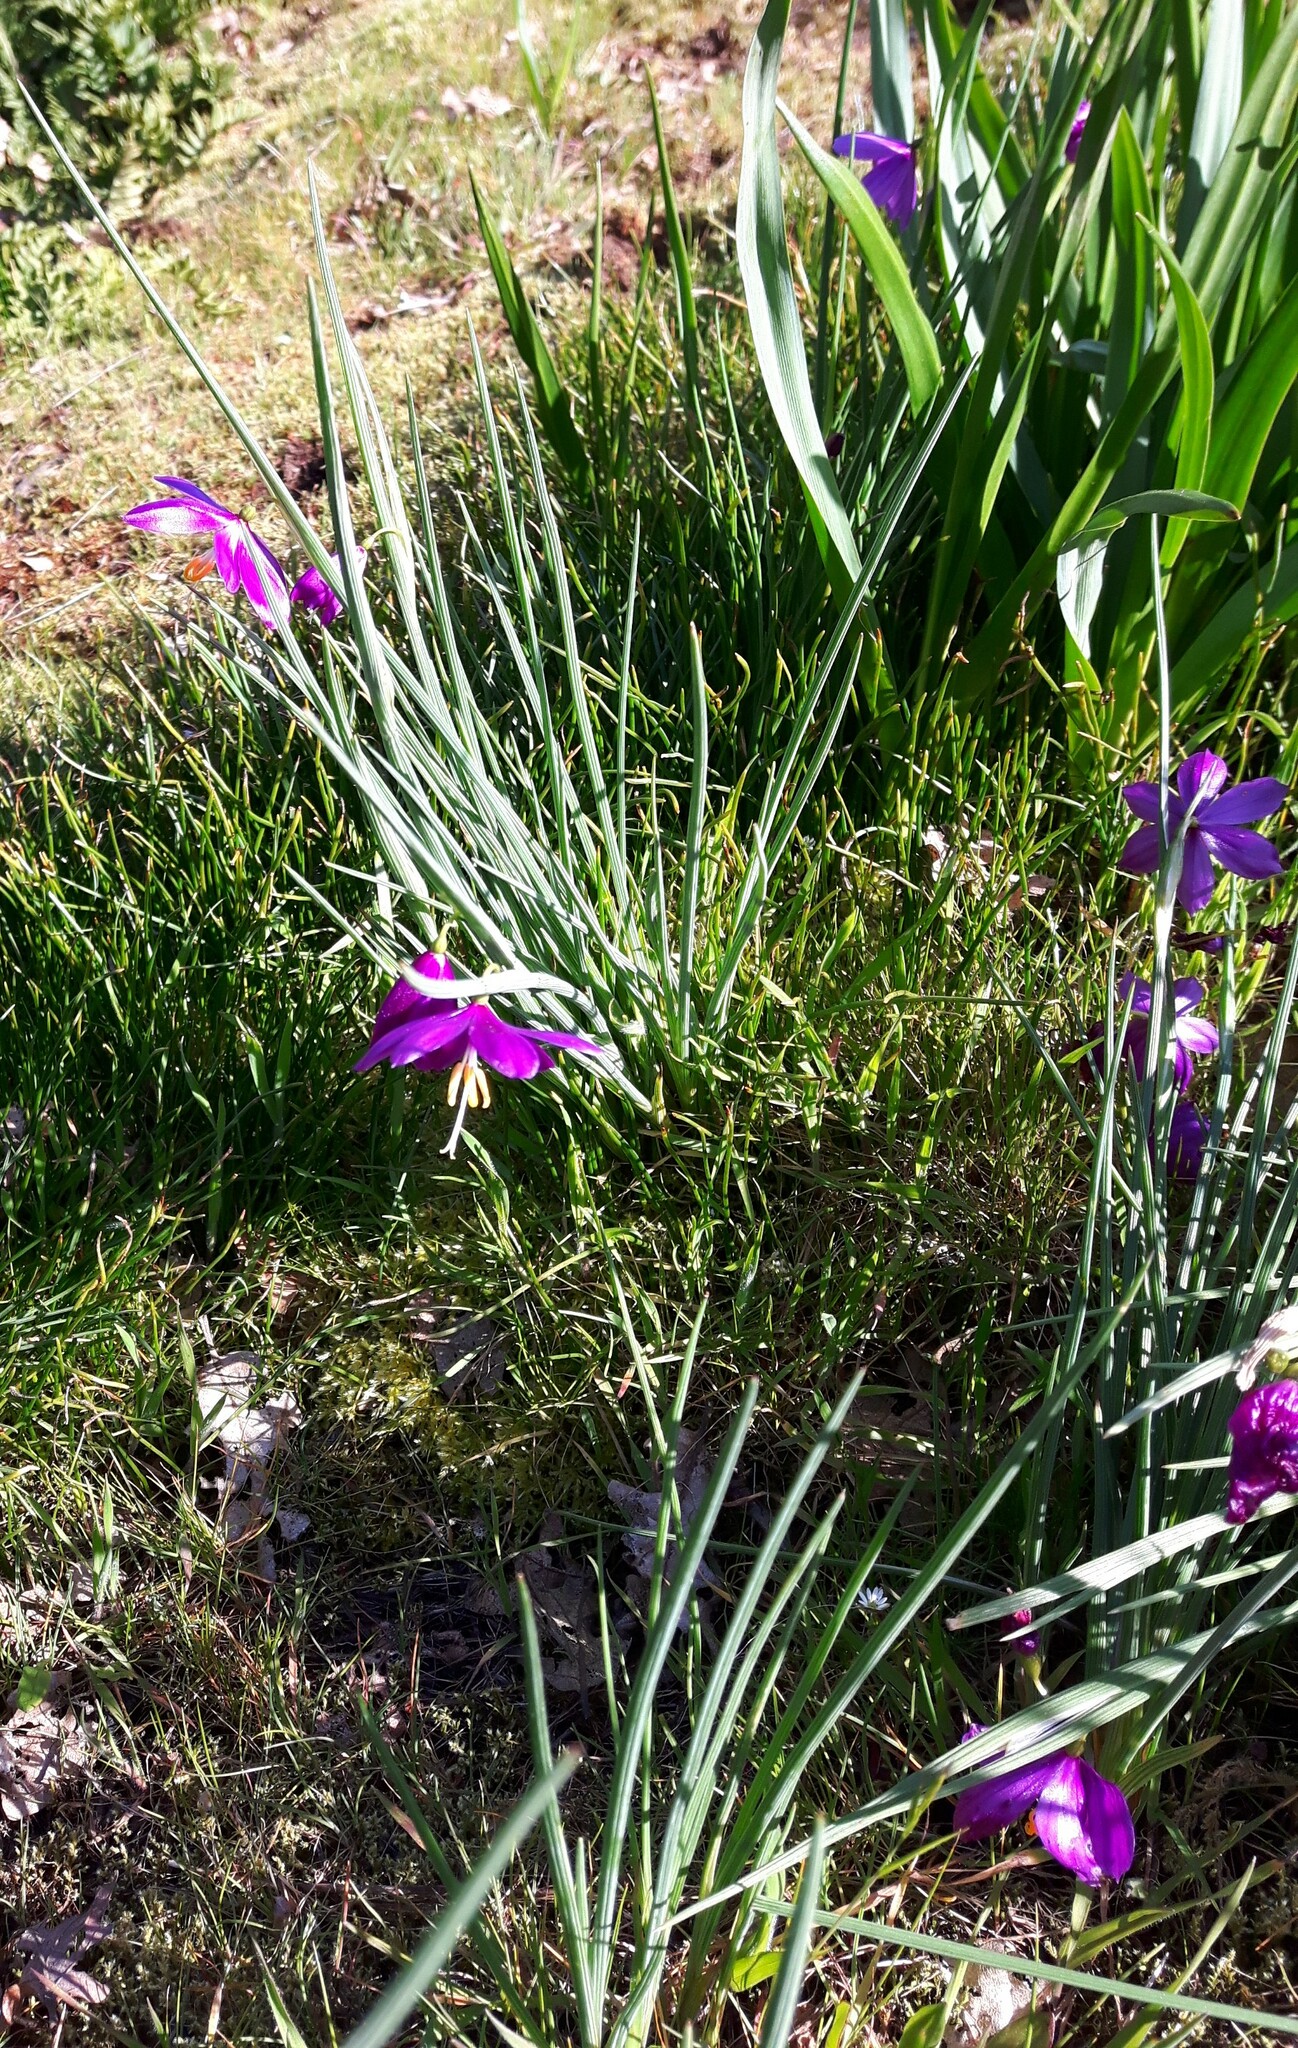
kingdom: Plantae
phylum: Tracheophyta
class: Liliopsida
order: Asparagales
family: Iridaceae
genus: Olsynium
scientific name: Olsynium douglasii
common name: Douglas' grasswidow
